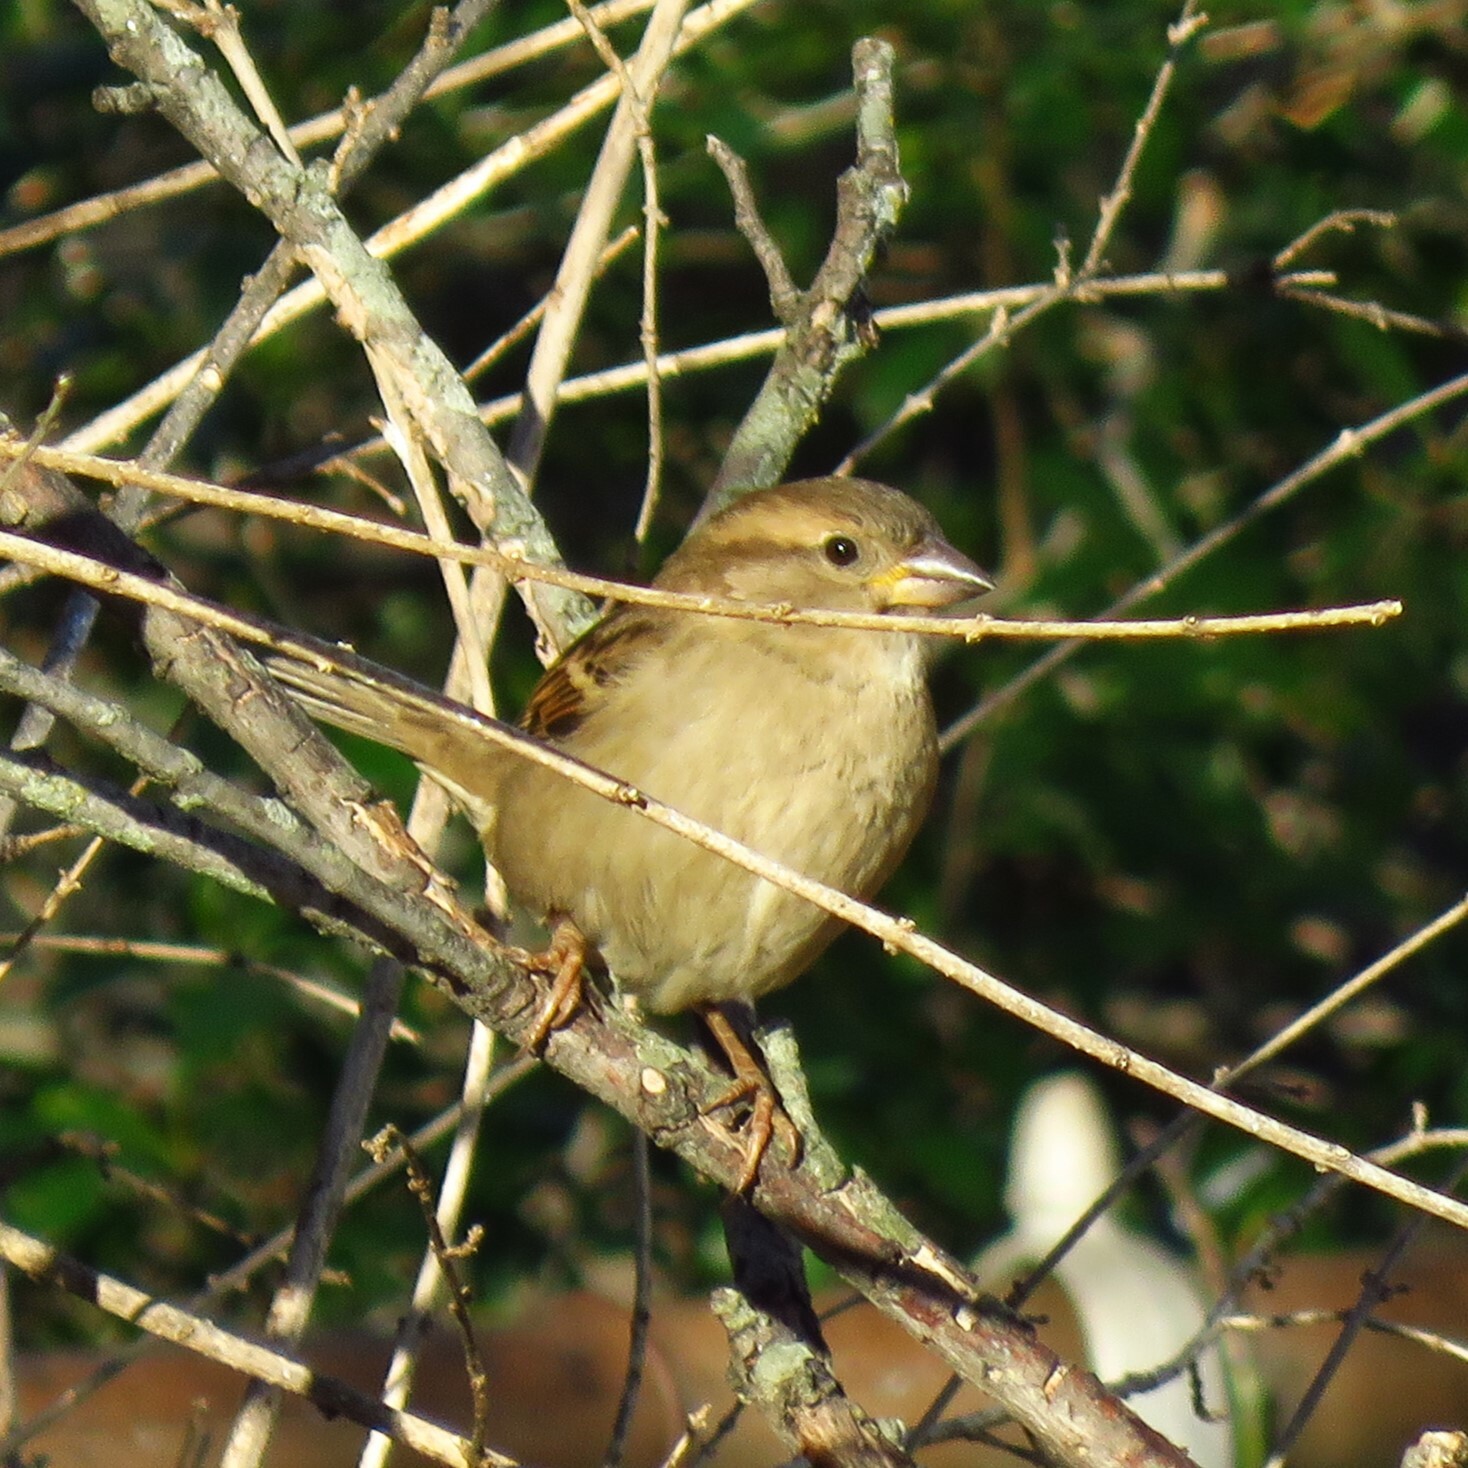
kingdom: Animalia
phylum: Chordata
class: Aves
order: Passeriformes
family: Passeridae
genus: Passer
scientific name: Passer domesticus
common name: House sparrow
